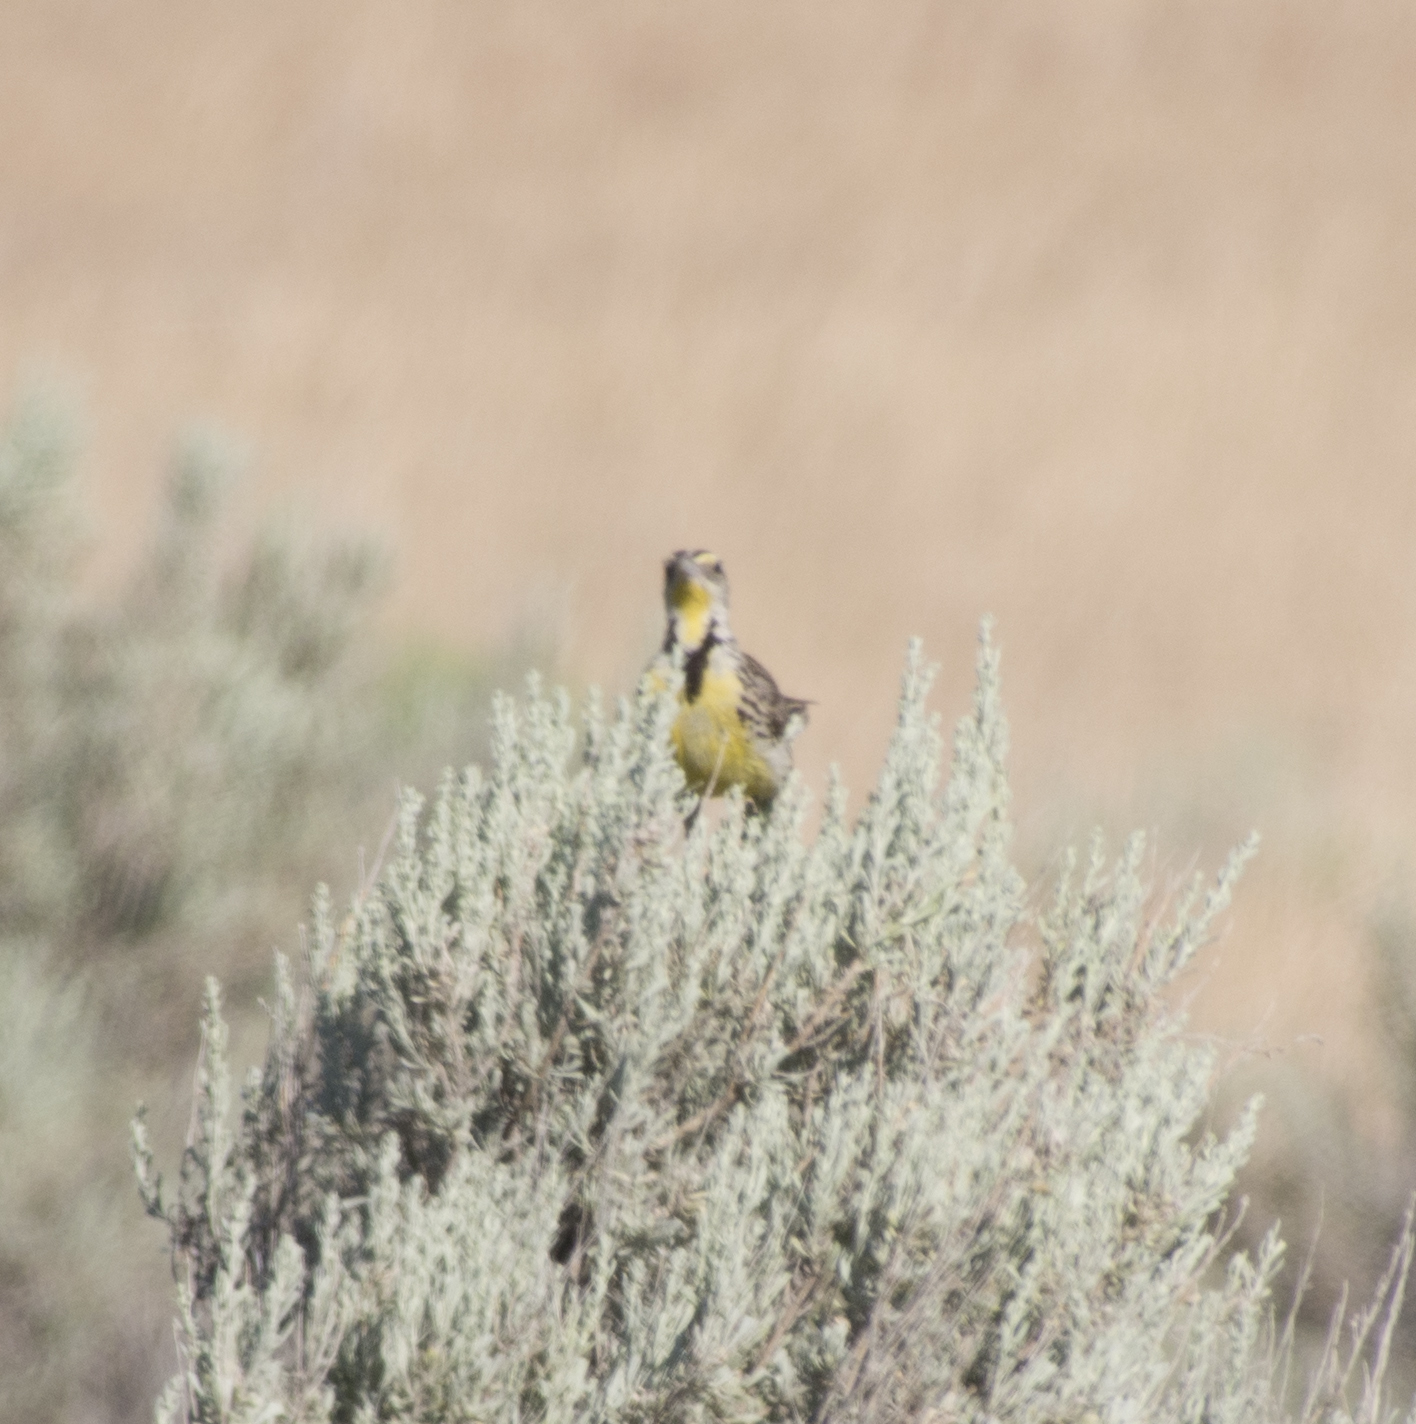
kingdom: Animalia
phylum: Chordata
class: Aves
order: Passeriformes
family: Icteridae
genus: Sturnella
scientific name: Sturnella neglecta
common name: Western meadowlark
